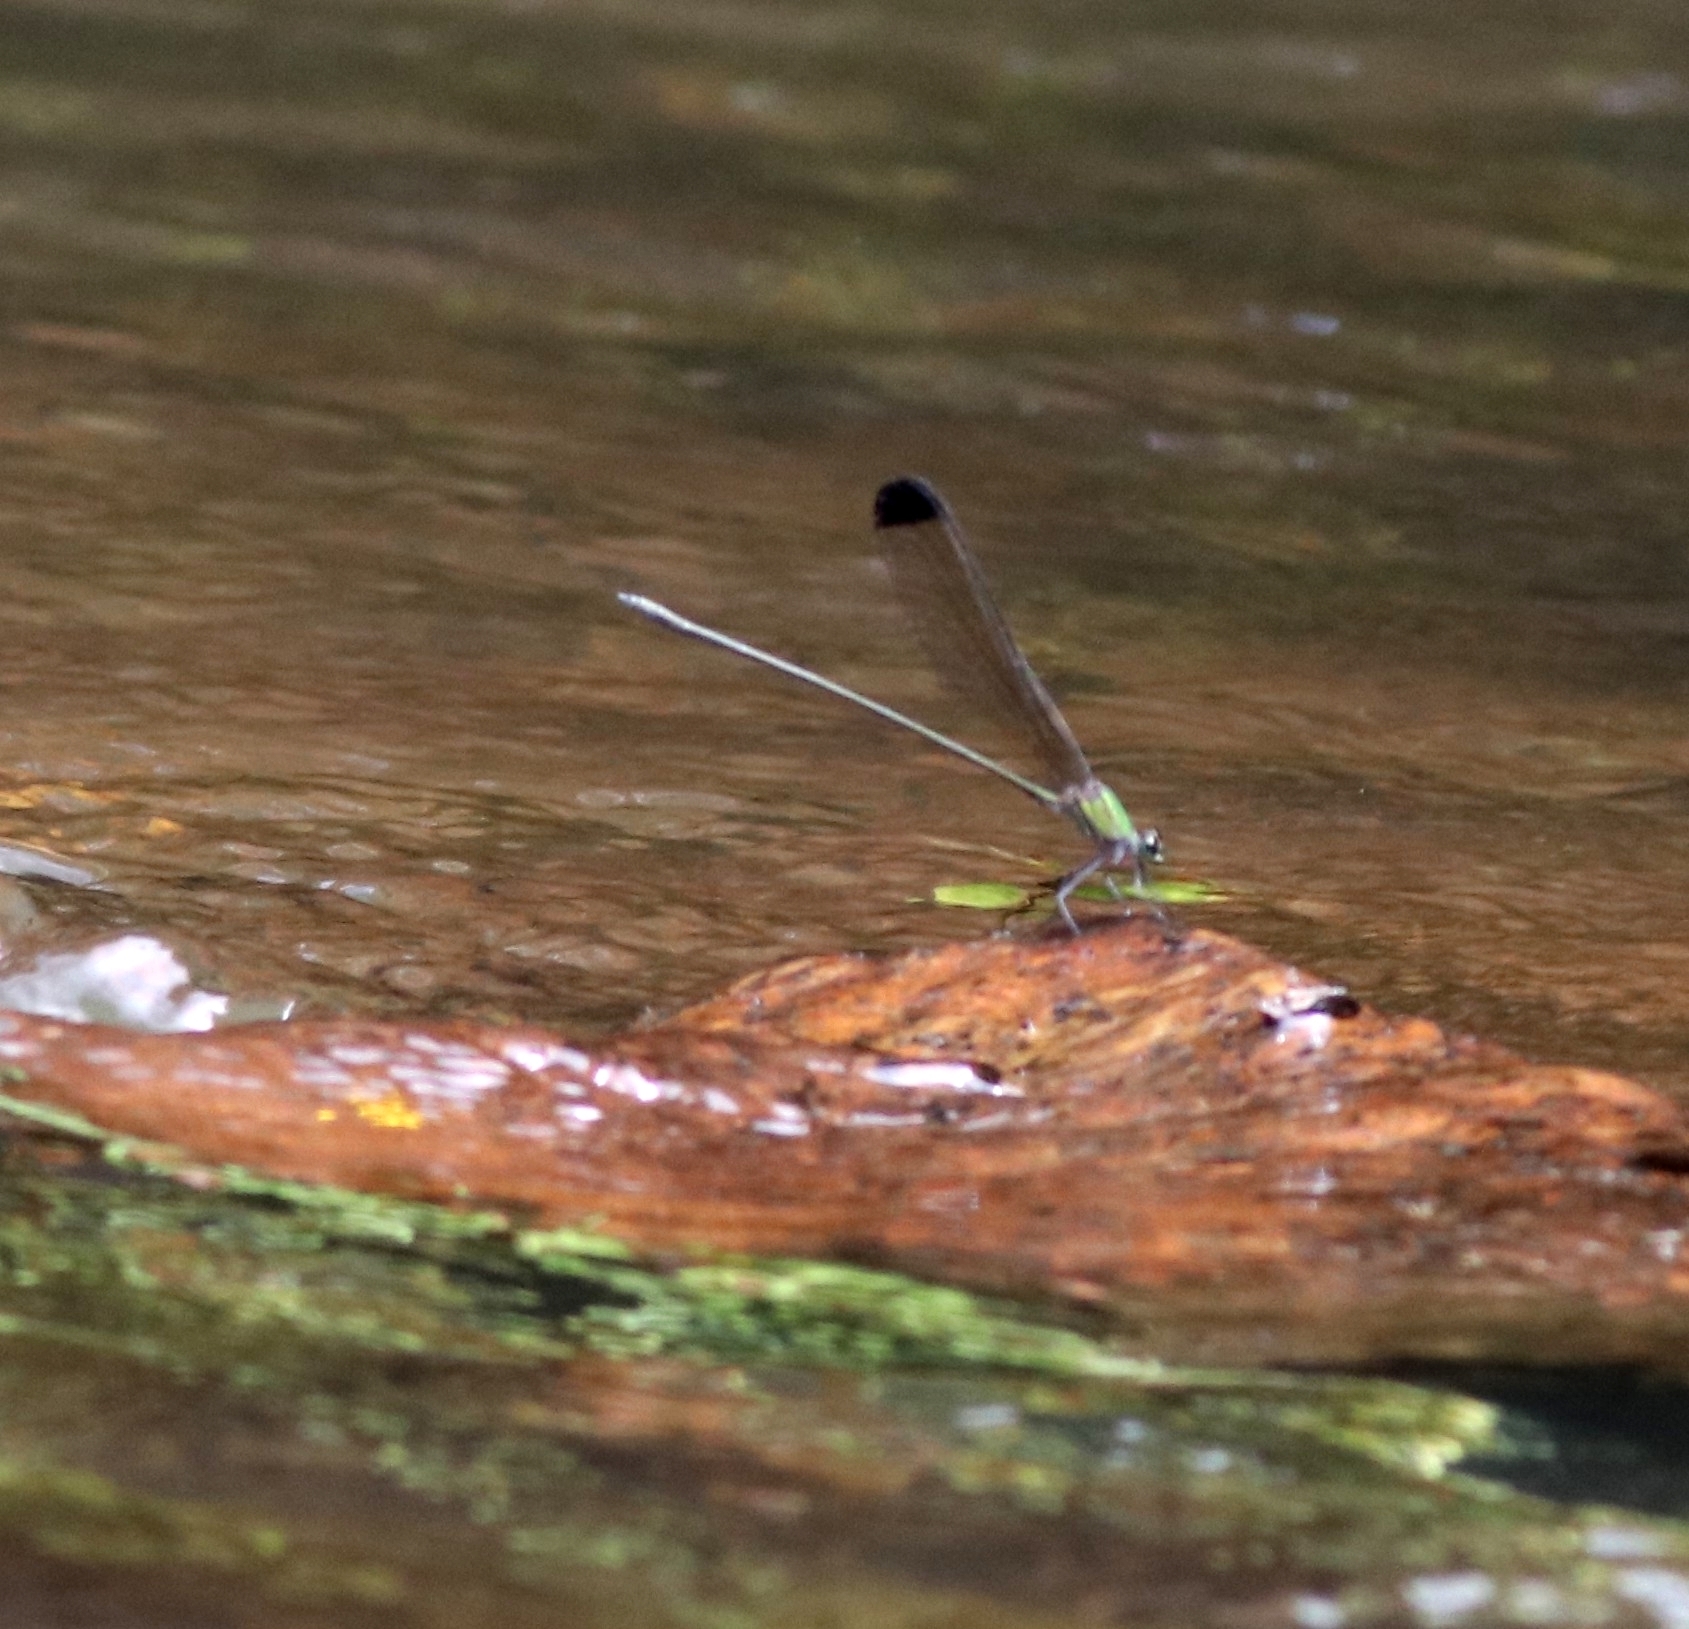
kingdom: Animalia
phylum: Arthropoda
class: Insecta
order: Odonata
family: Calopterygidae
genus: Vestalis
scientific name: Vestalis apicalis
